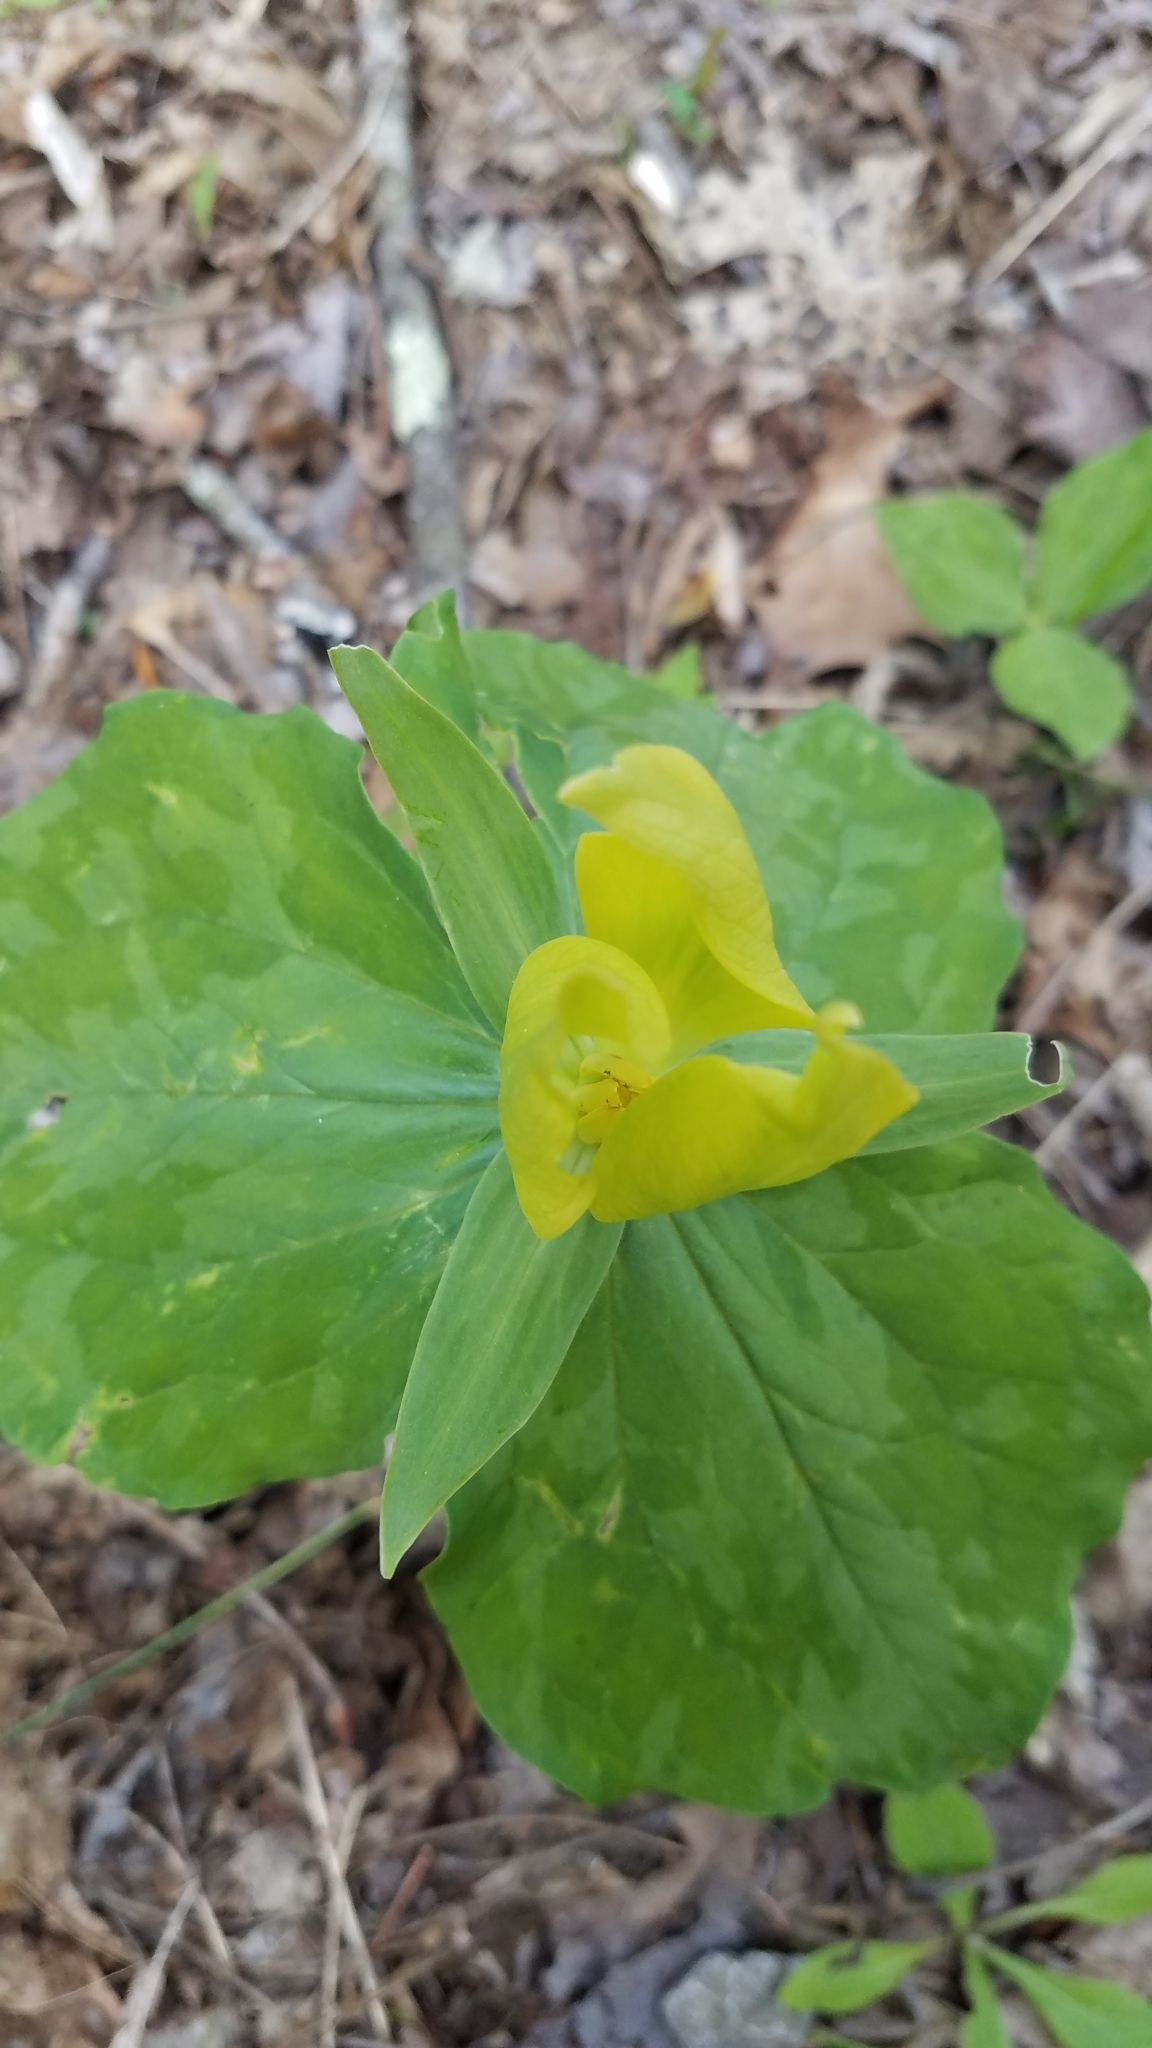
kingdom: Plantae
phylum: Tracheophyta
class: Liliopsida
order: Liliales
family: Melanthiaceae
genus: Trillium
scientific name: Trillium luteum
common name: Wax trillium
